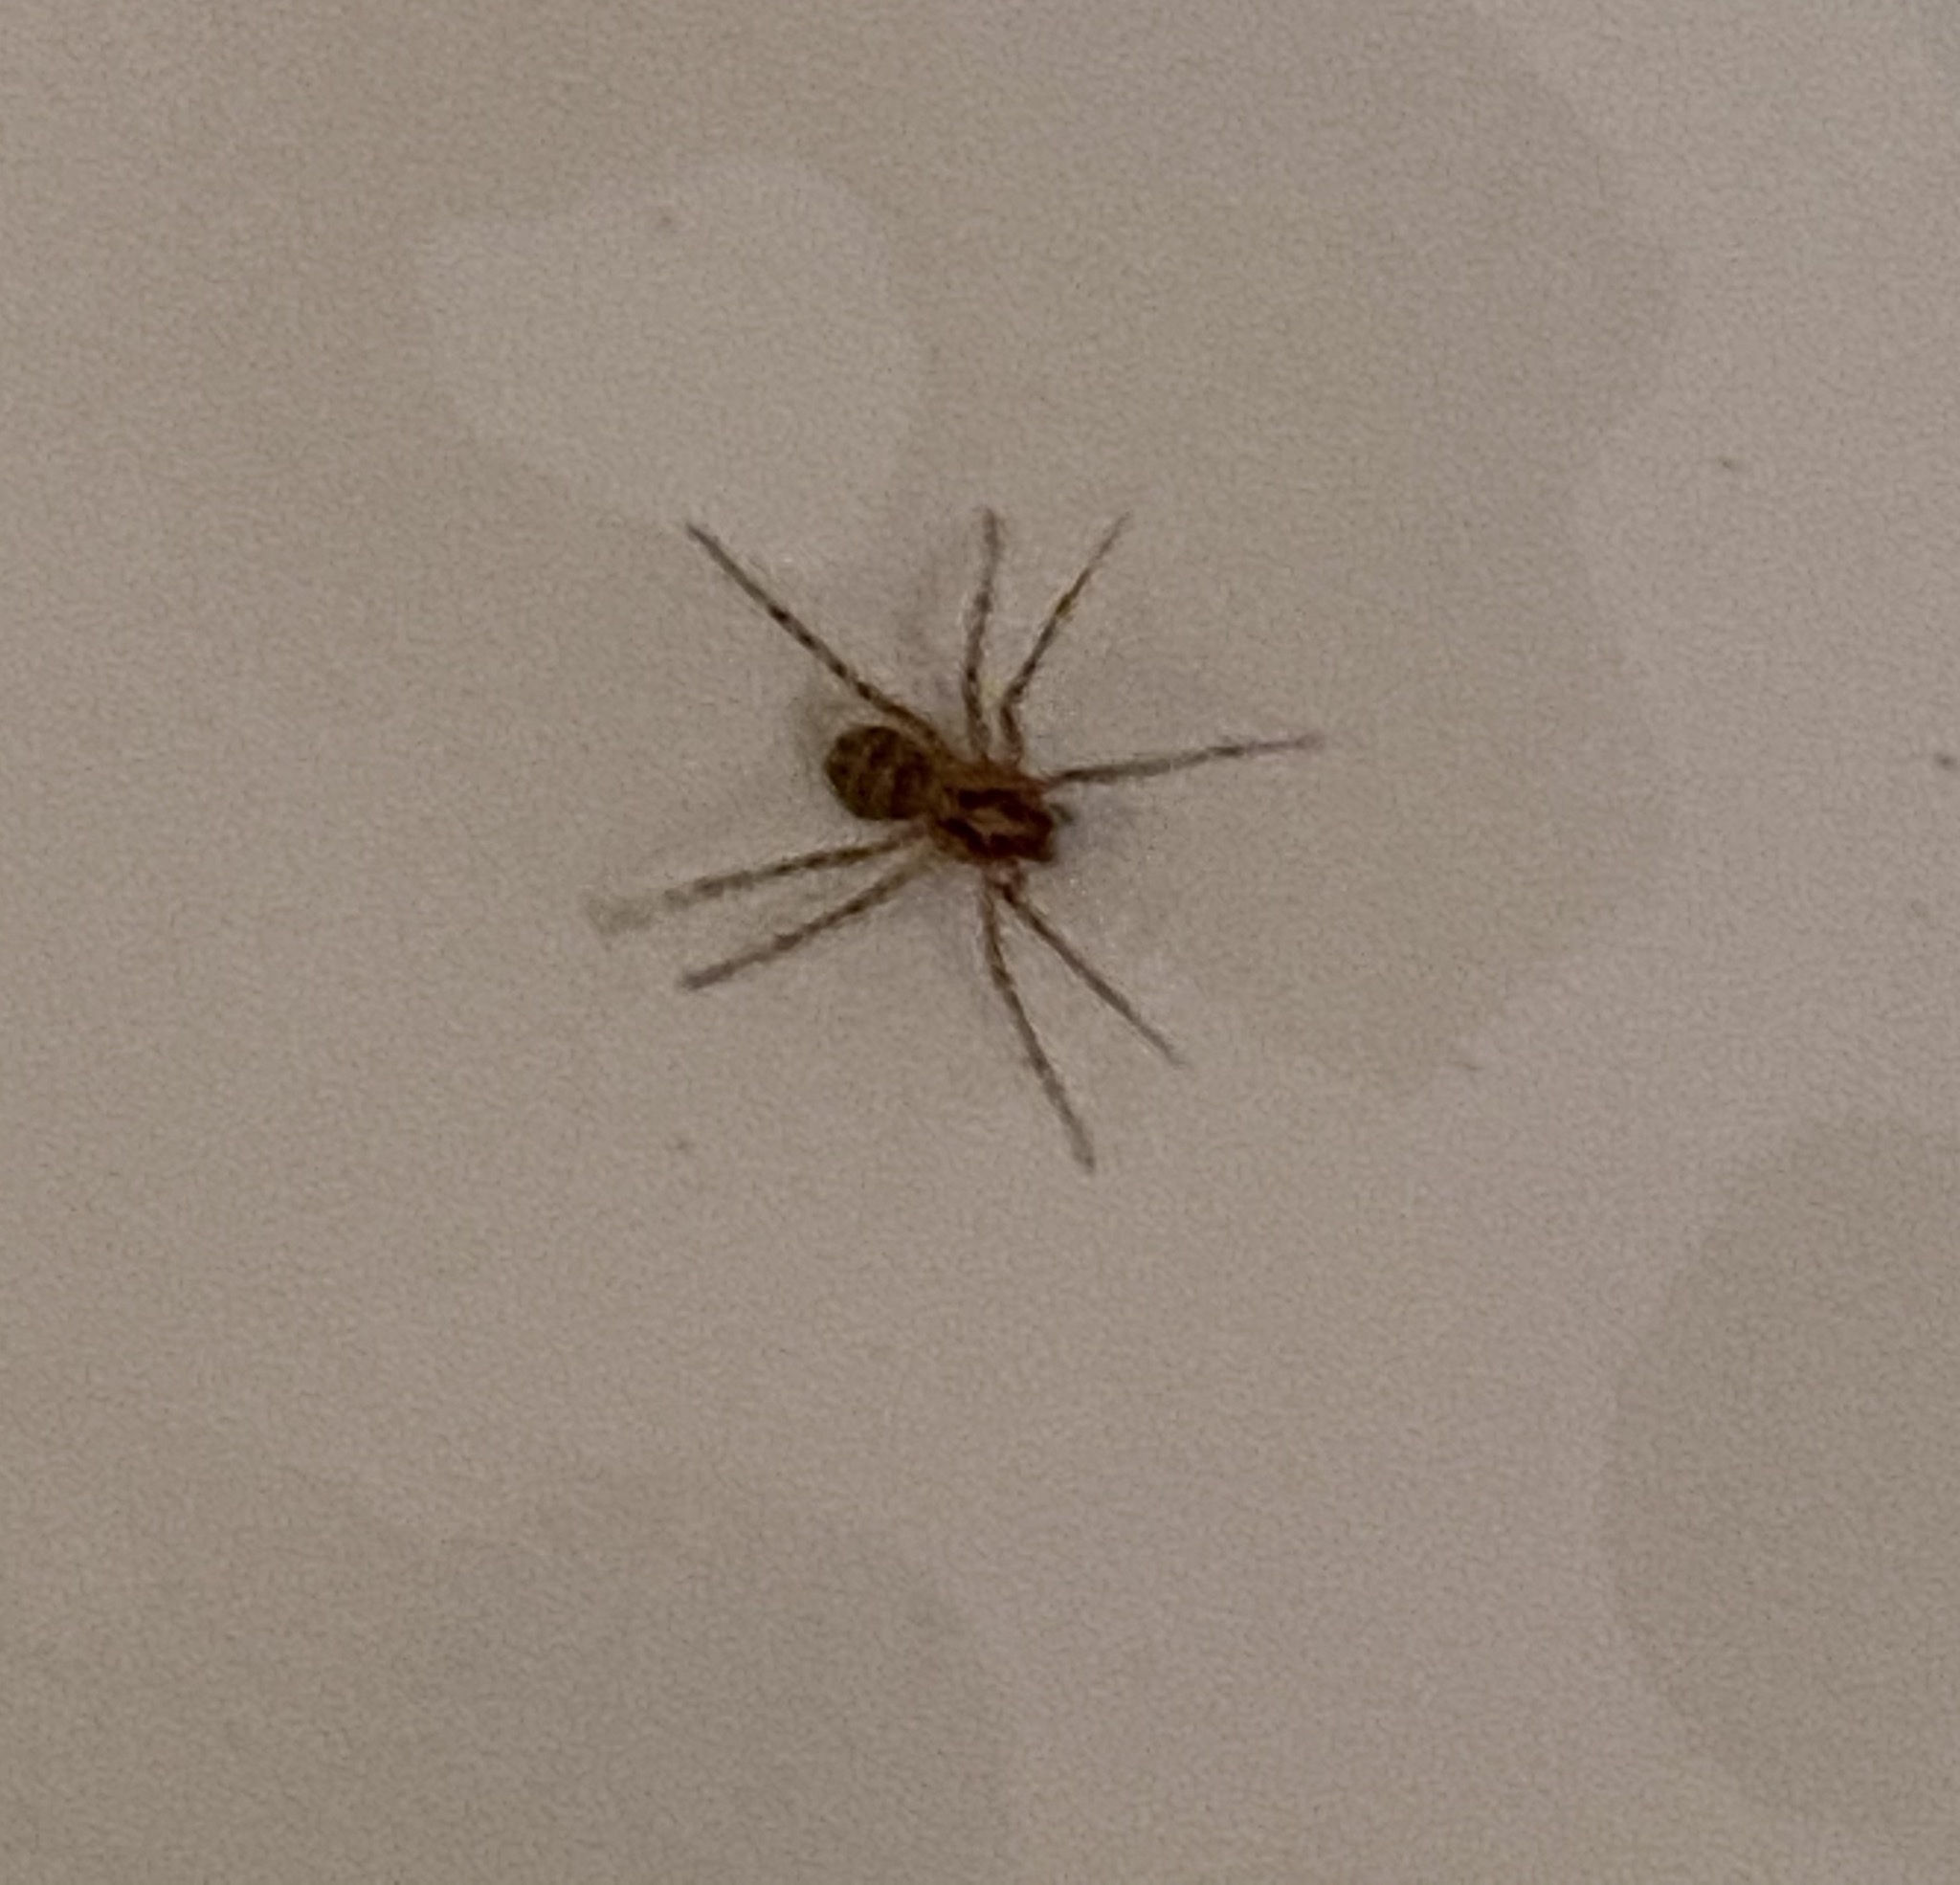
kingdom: Animalia
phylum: Arthropoda
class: Arachnida
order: Araneae
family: Scytodidae
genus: Scytodes
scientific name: Scytodes thoracica
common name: Spitting spider
